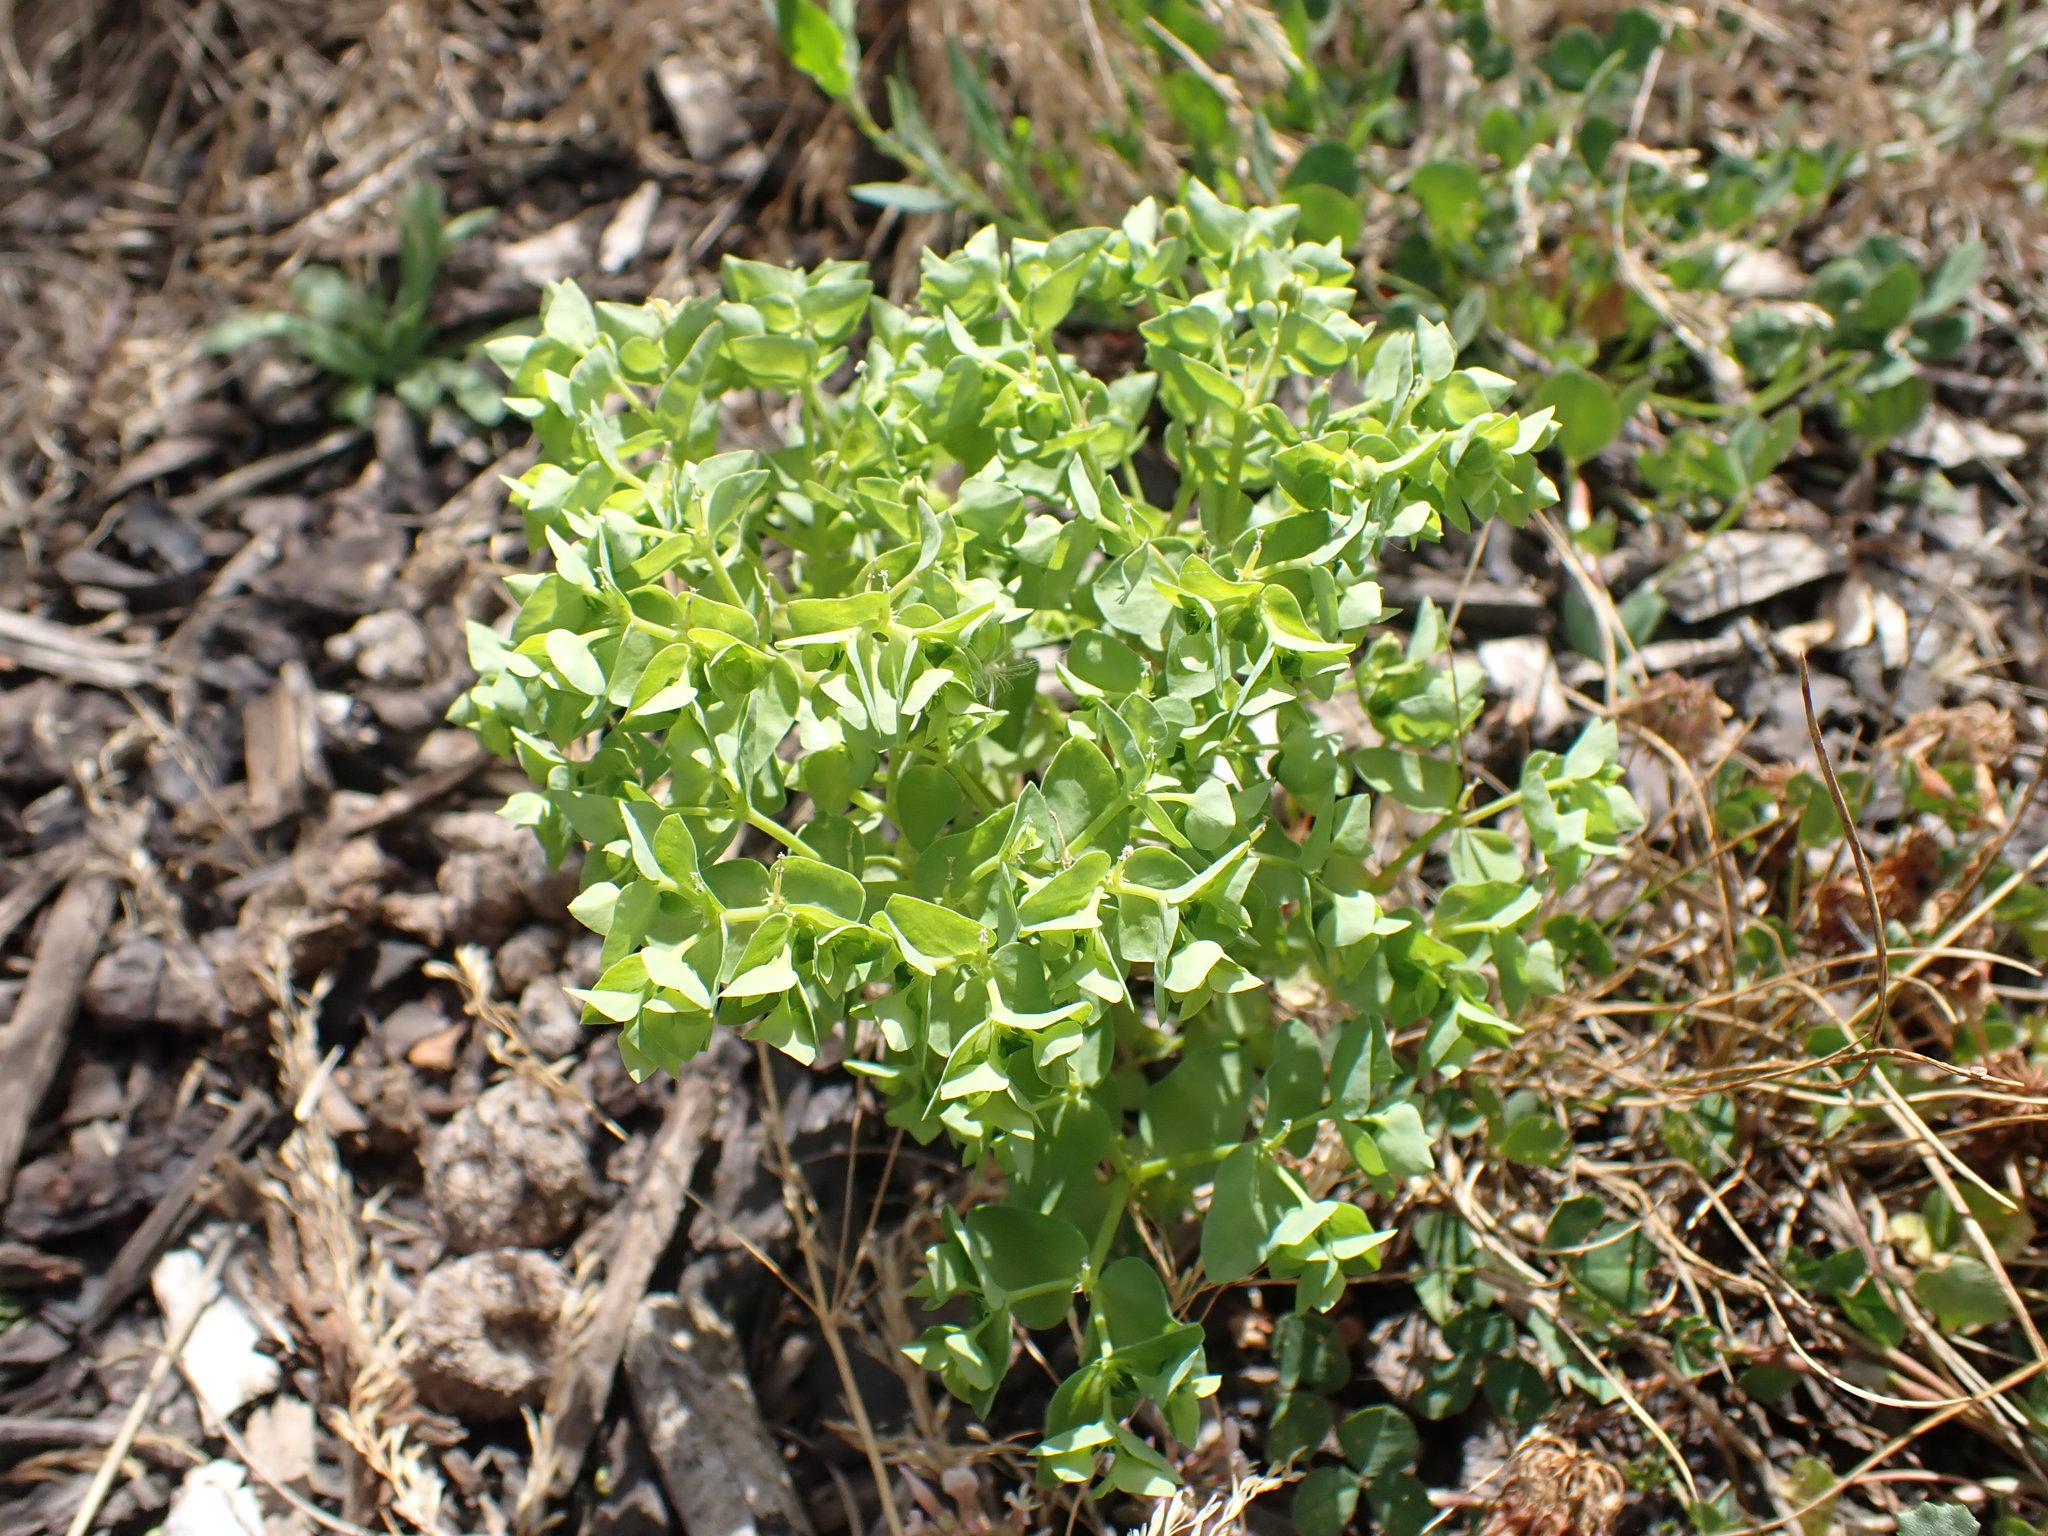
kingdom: Plantae
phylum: Tracheophyta
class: Magnoliopsida
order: Malpighiales
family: Euphorbiaceae
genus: Euphorbia
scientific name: Euphorbia peplus
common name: Petty spurge
